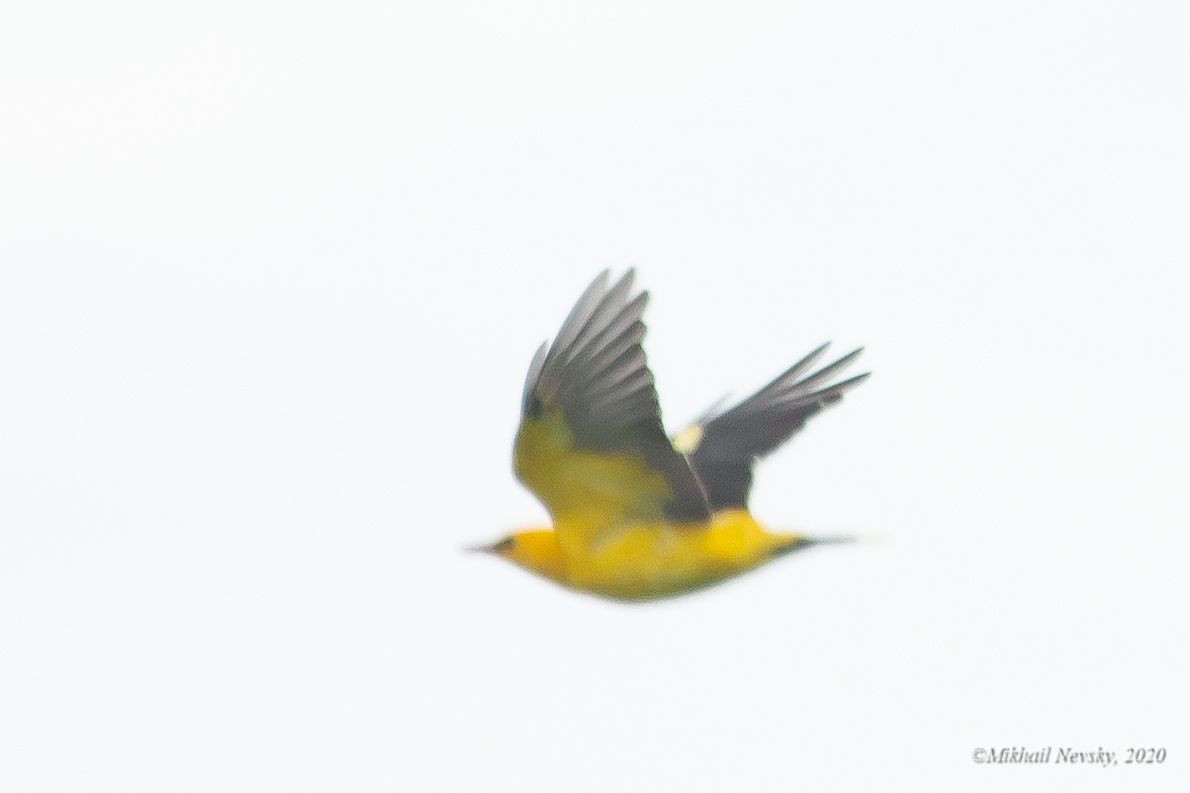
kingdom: Animalia
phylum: Chordata
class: Aves
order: Passeriformes
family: Oriolidae
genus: Oriolus
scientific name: Oriolus oriolus
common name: Eurasian golden oriole
